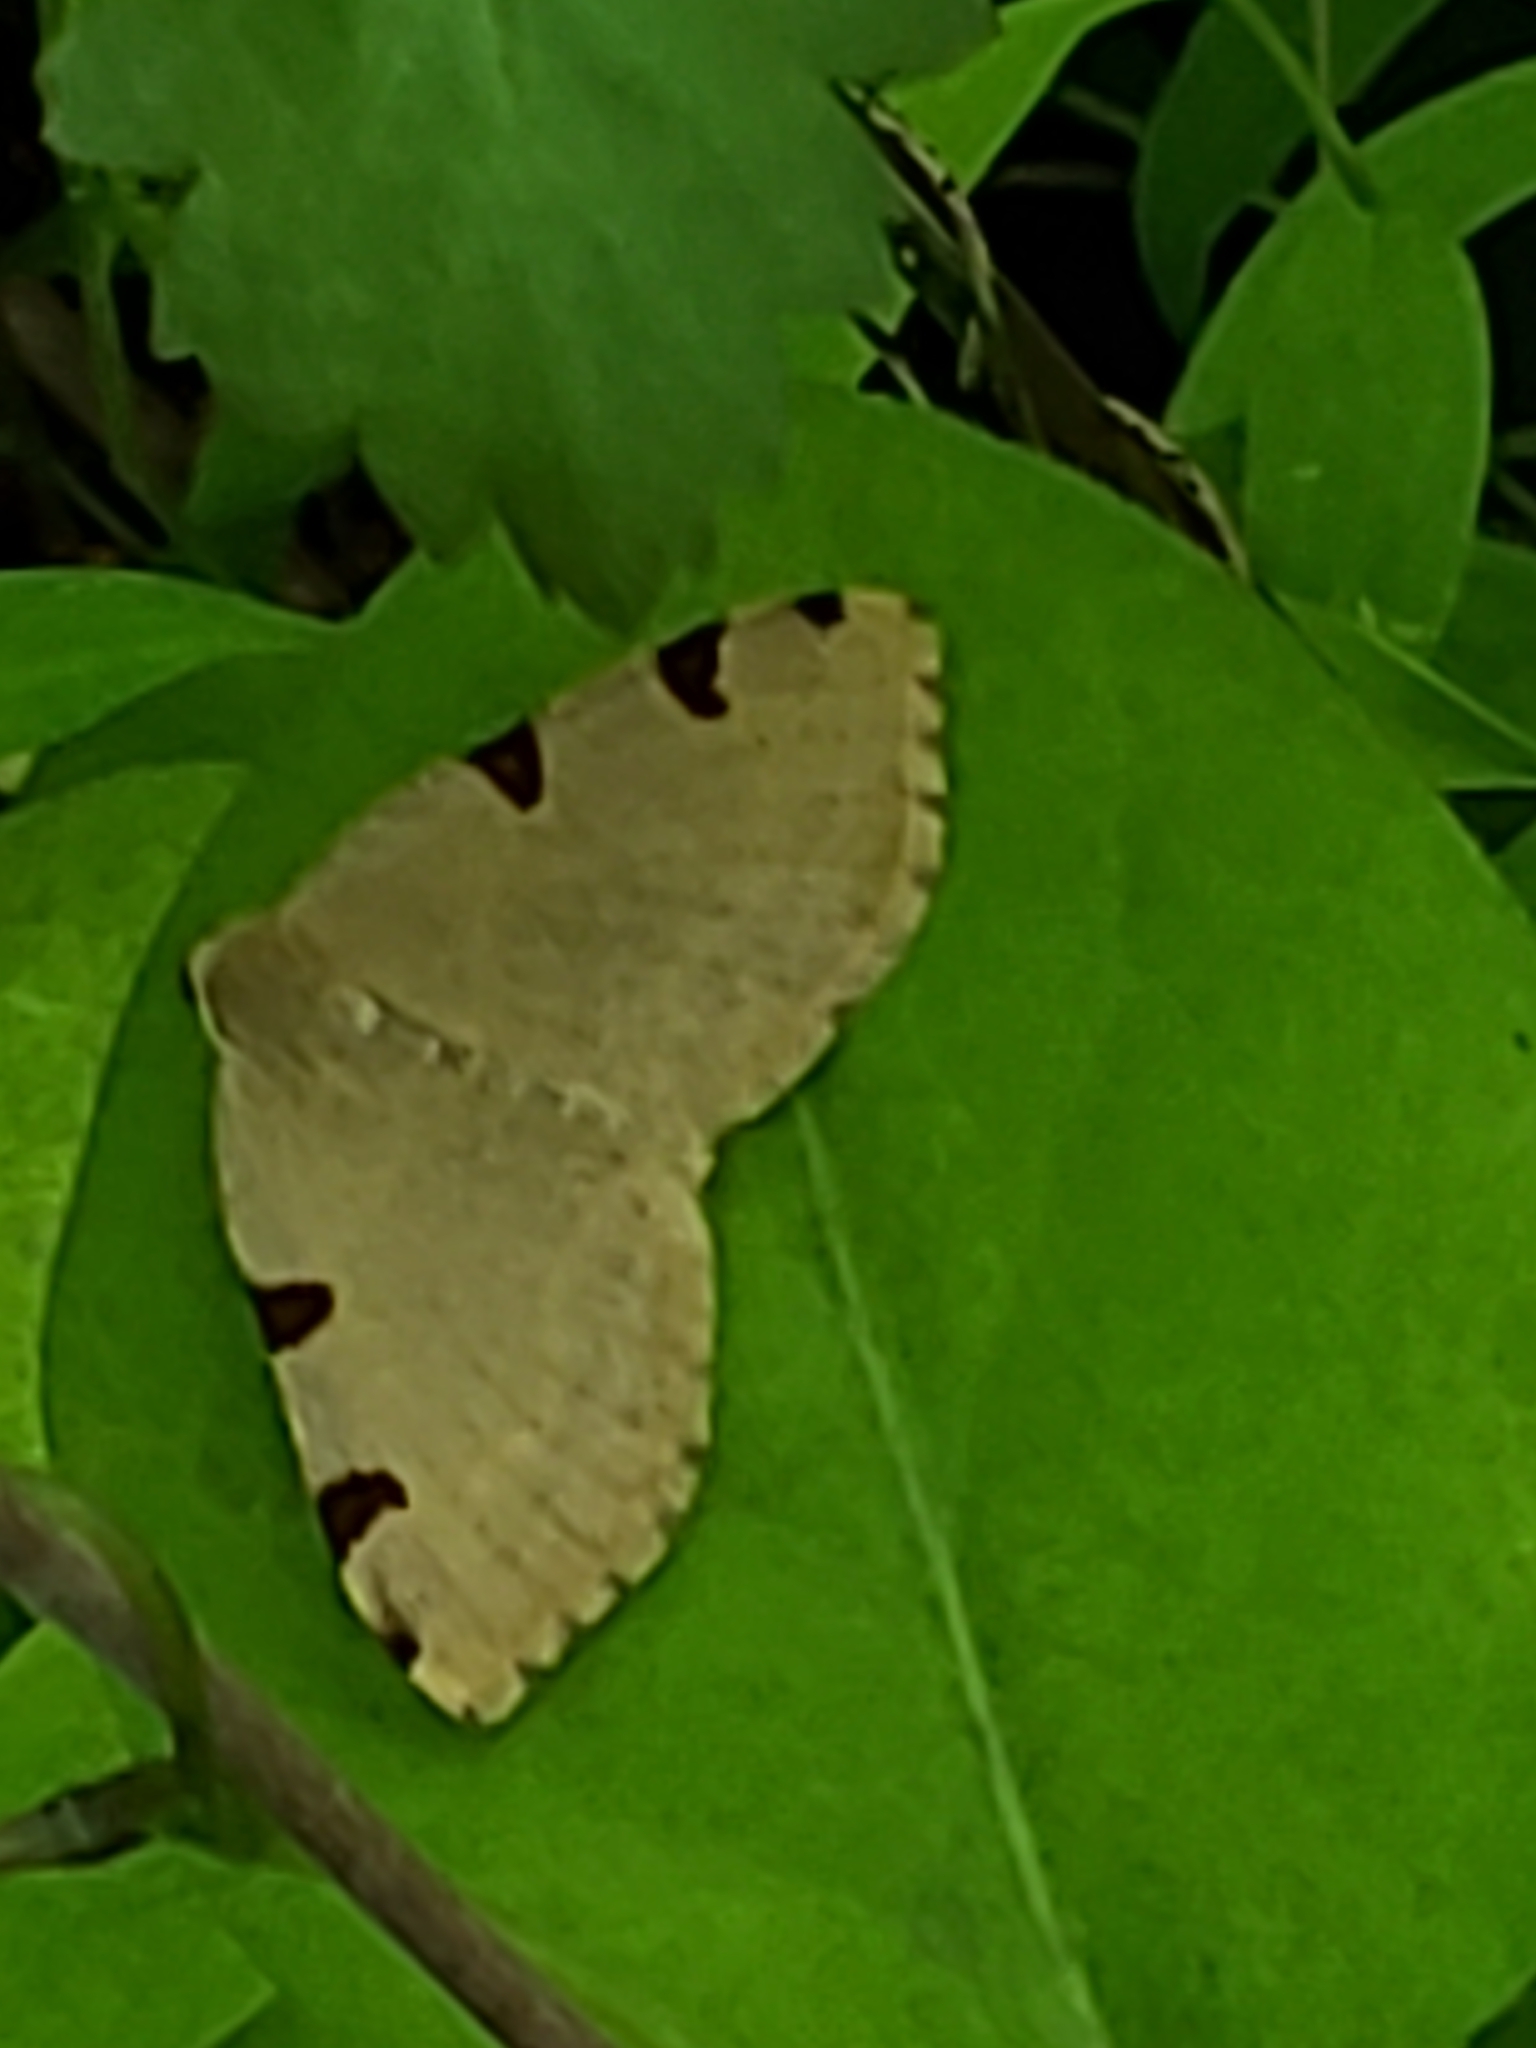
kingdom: Animalia
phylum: Arthropoda
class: Insecta
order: Lepidoptera
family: Geometridae
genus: Heterophleps
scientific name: Heterophleps triguttaria
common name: Three-spotted fillip
